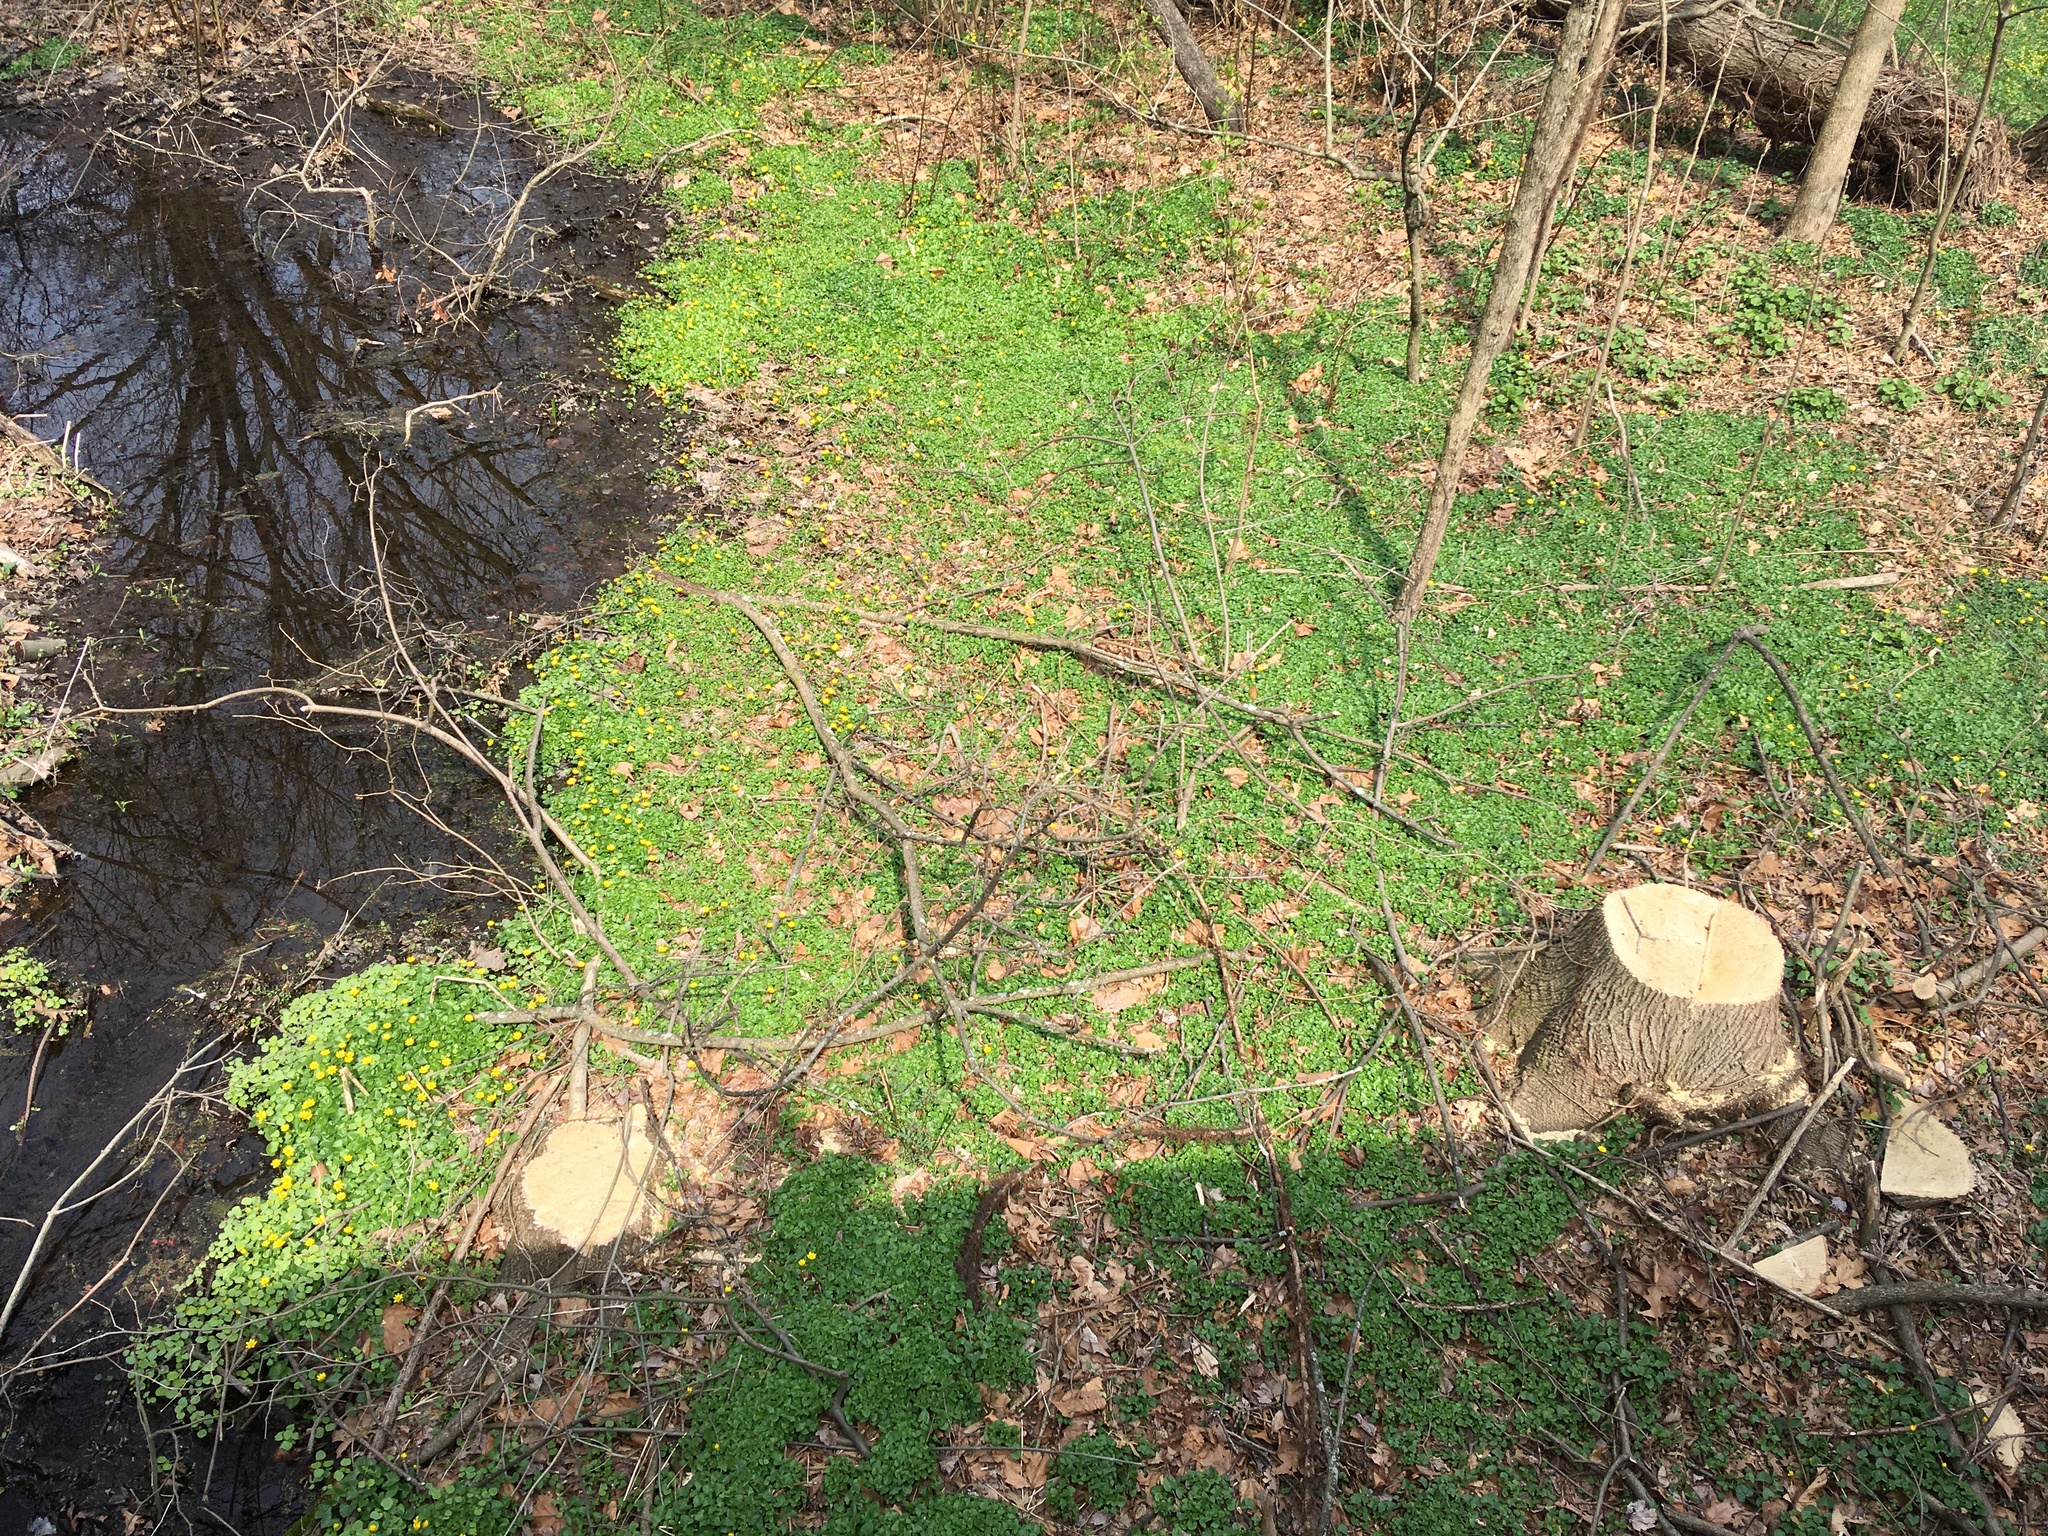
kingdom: Plantae
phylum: Tracheophyta
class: Magnoliopsida
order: Ranunculales
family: Ranunculaceae
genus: Ficaria
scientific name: Ficaria verna
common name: Lesser celandine
